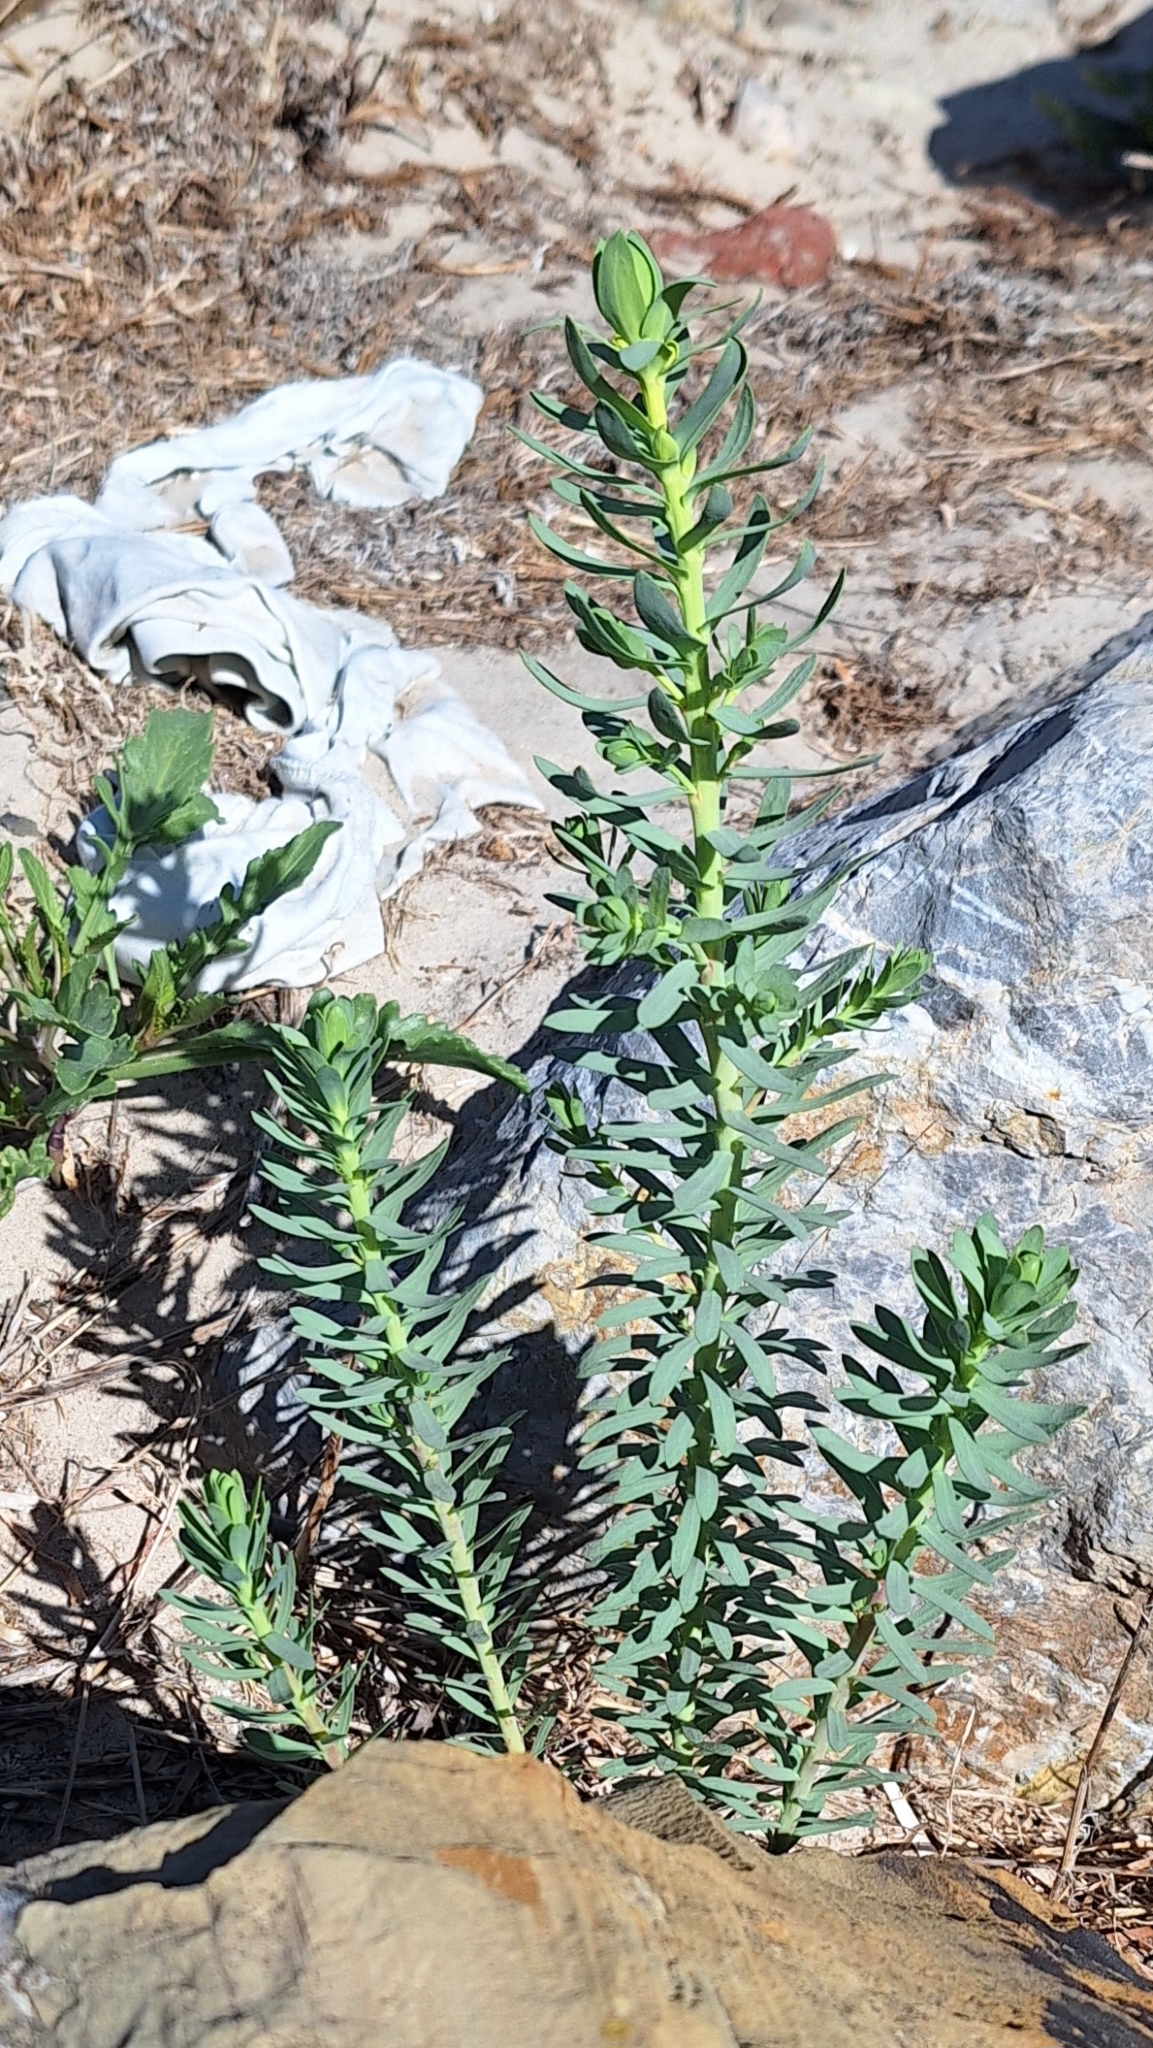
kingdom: Plantae
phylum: Tracheophyta
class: Magnoliopsida
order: Malpighiales
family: Euphorbiaceae
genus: Euphorbia
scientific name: Euphorbia paralias
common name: Sea spurge
